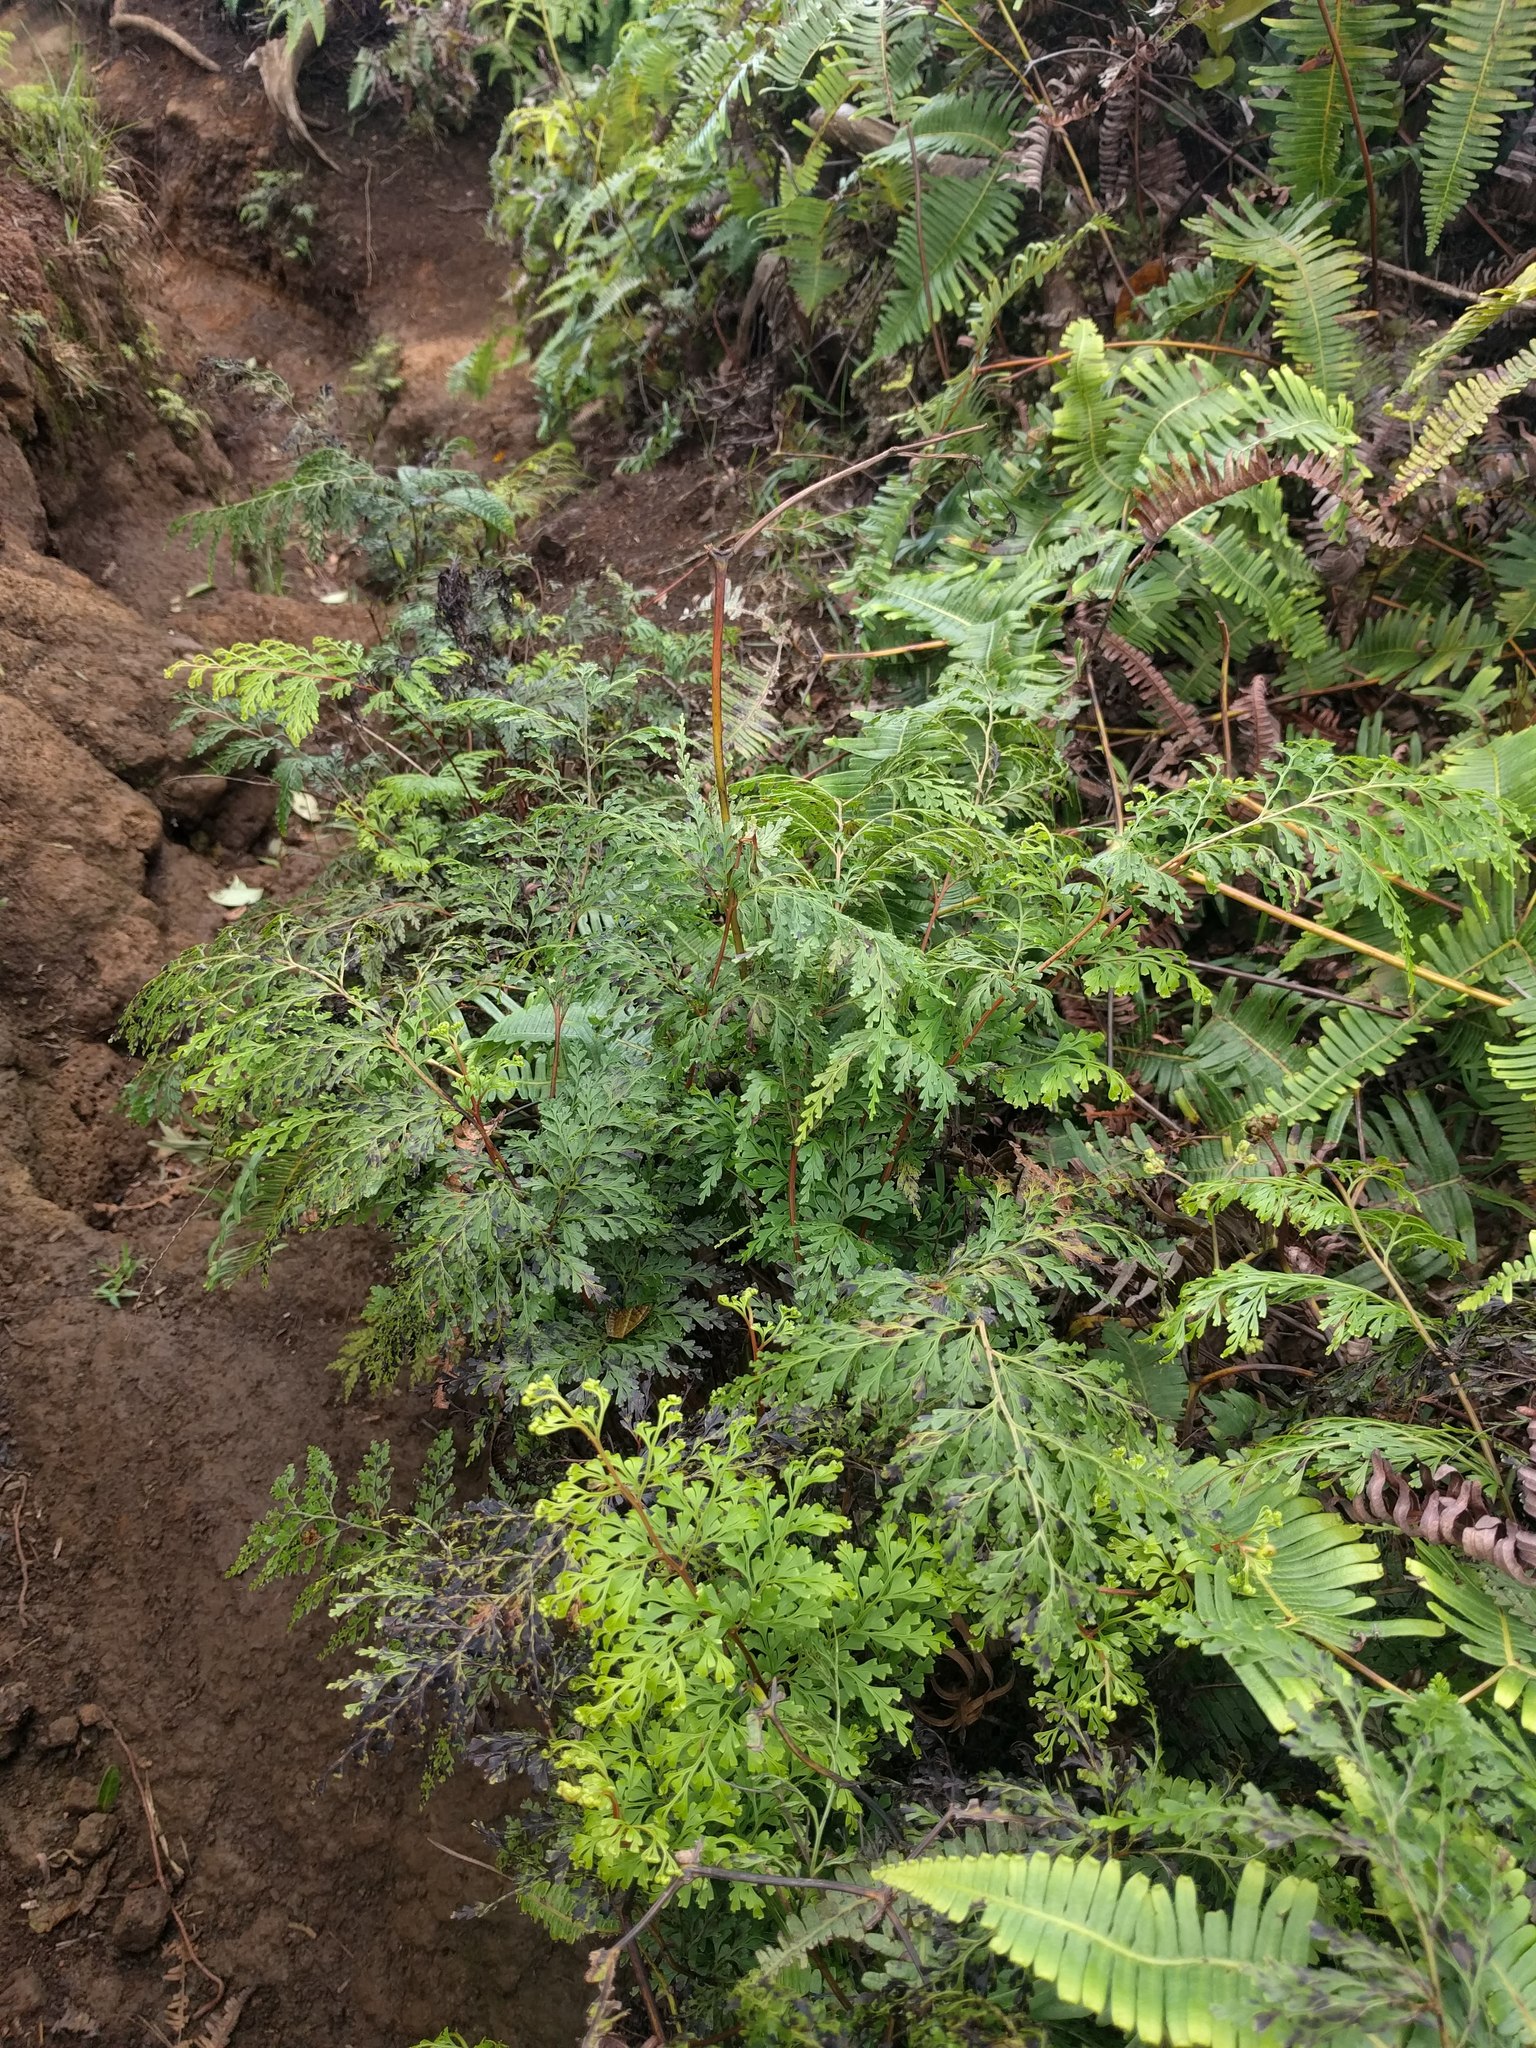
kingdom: Plantae
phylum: Tracheophyta
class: Polypodiopsida
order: Polypodiales
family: Lindsaeaceae
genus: Odontosoria
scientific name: Odontosoria chinensis
